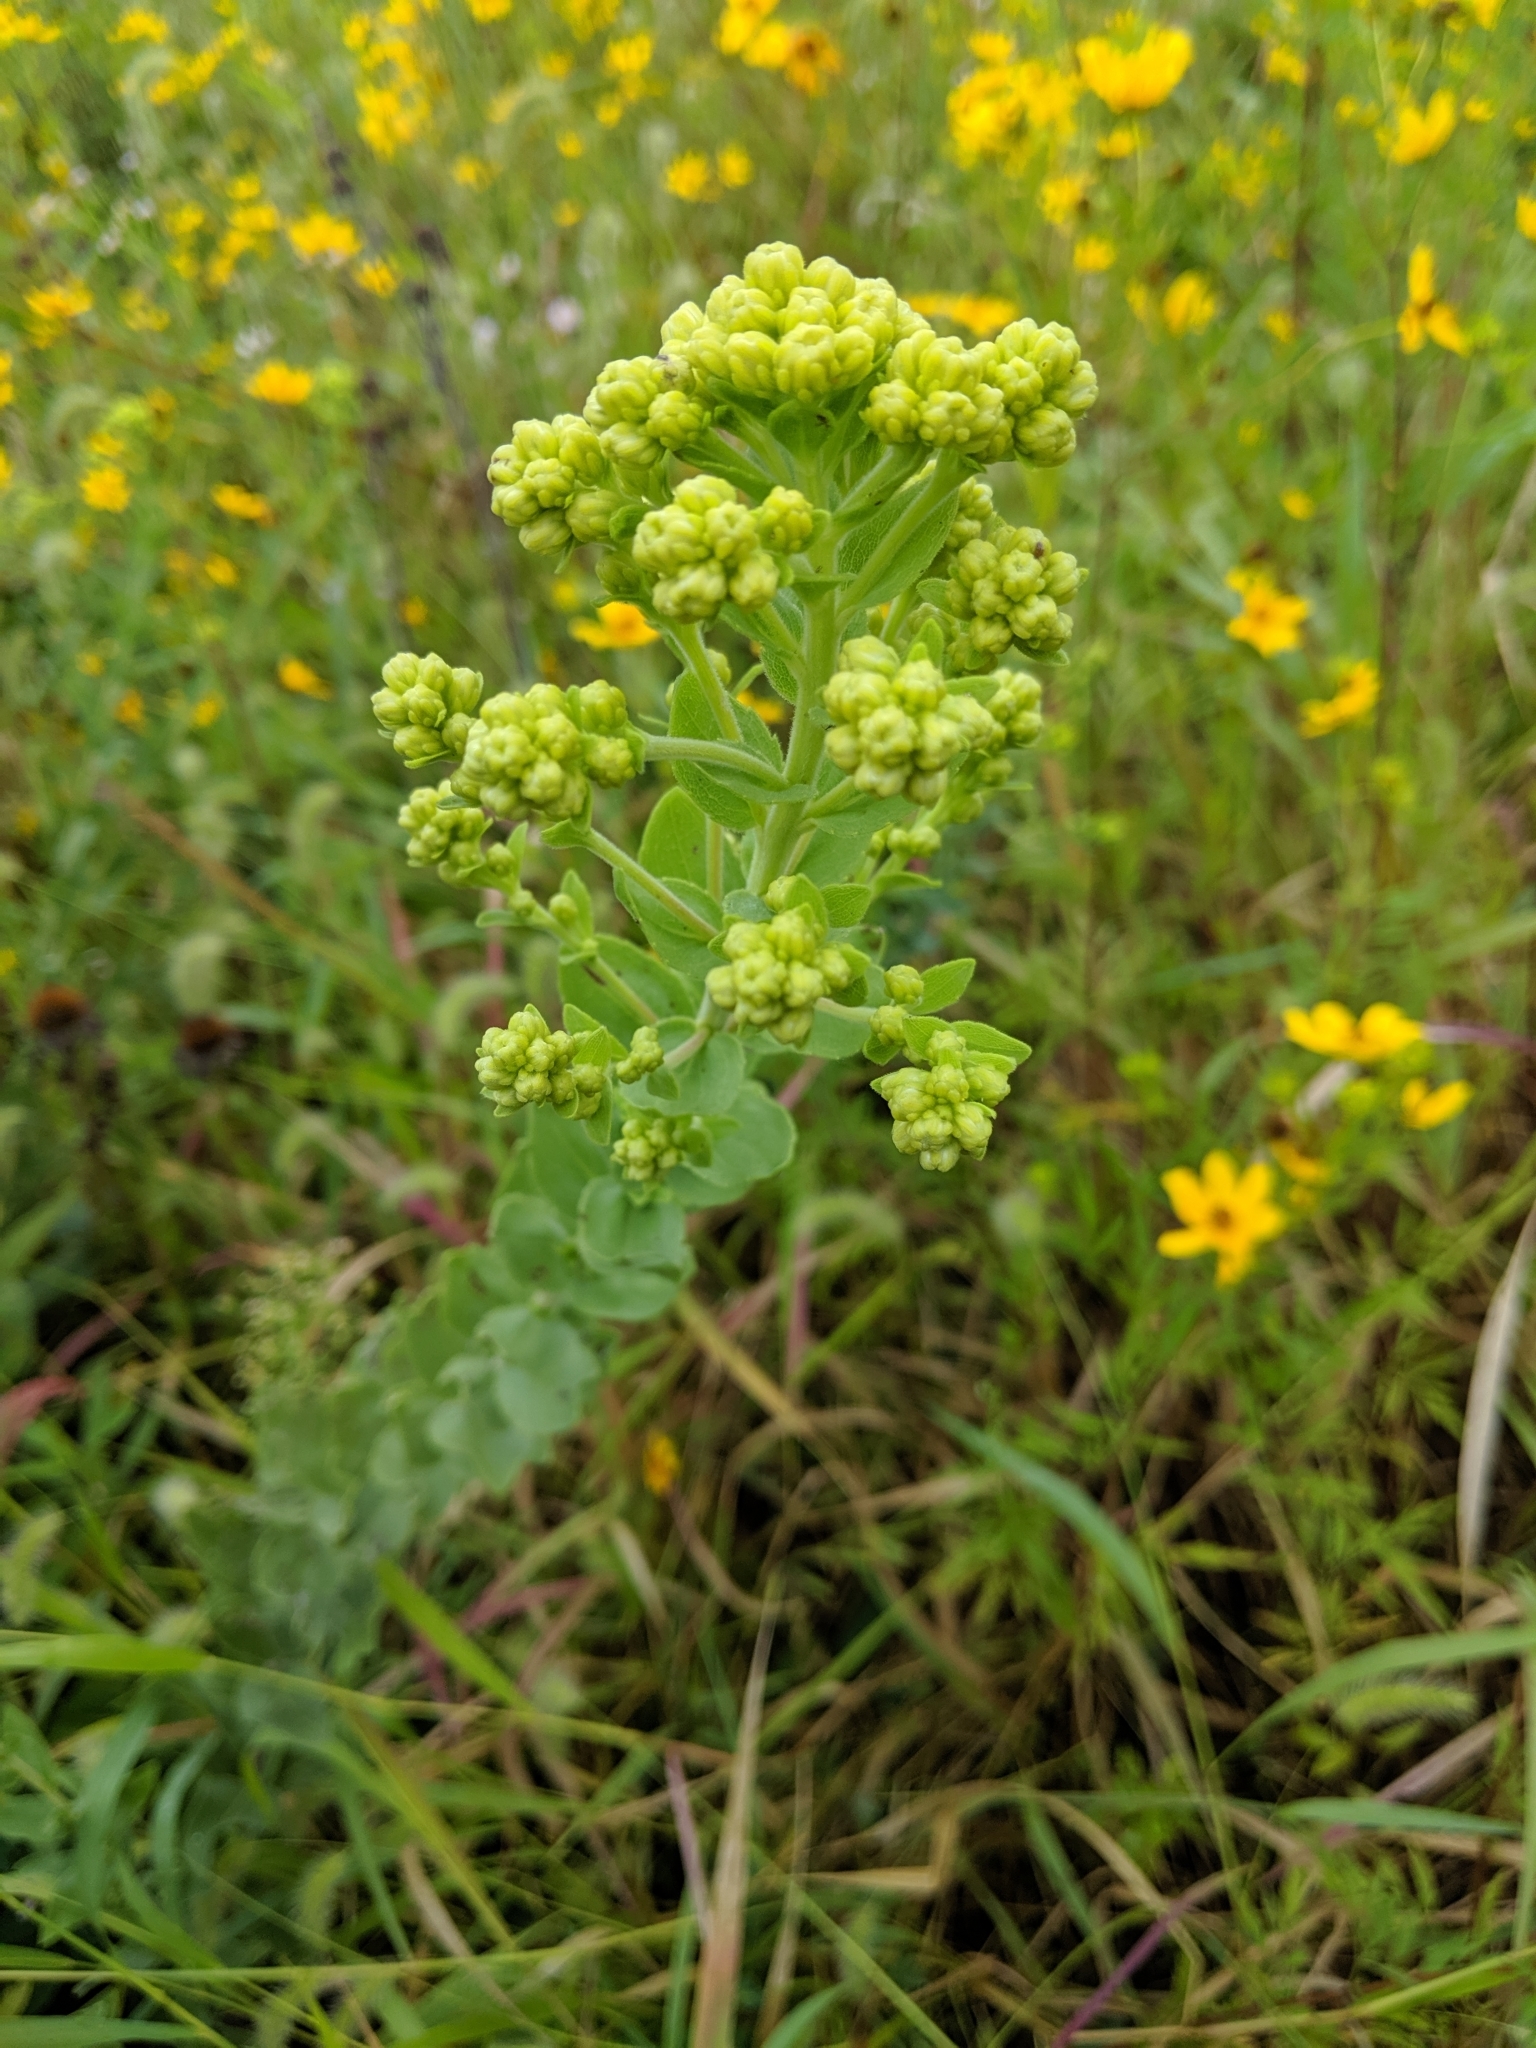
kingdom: Plantae
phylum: Tracheophyta
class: Magnoliopsida
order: Asterales
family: Asteraceae
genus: Solidago
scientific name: Solidago rigida
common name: Rigid goldenrod
